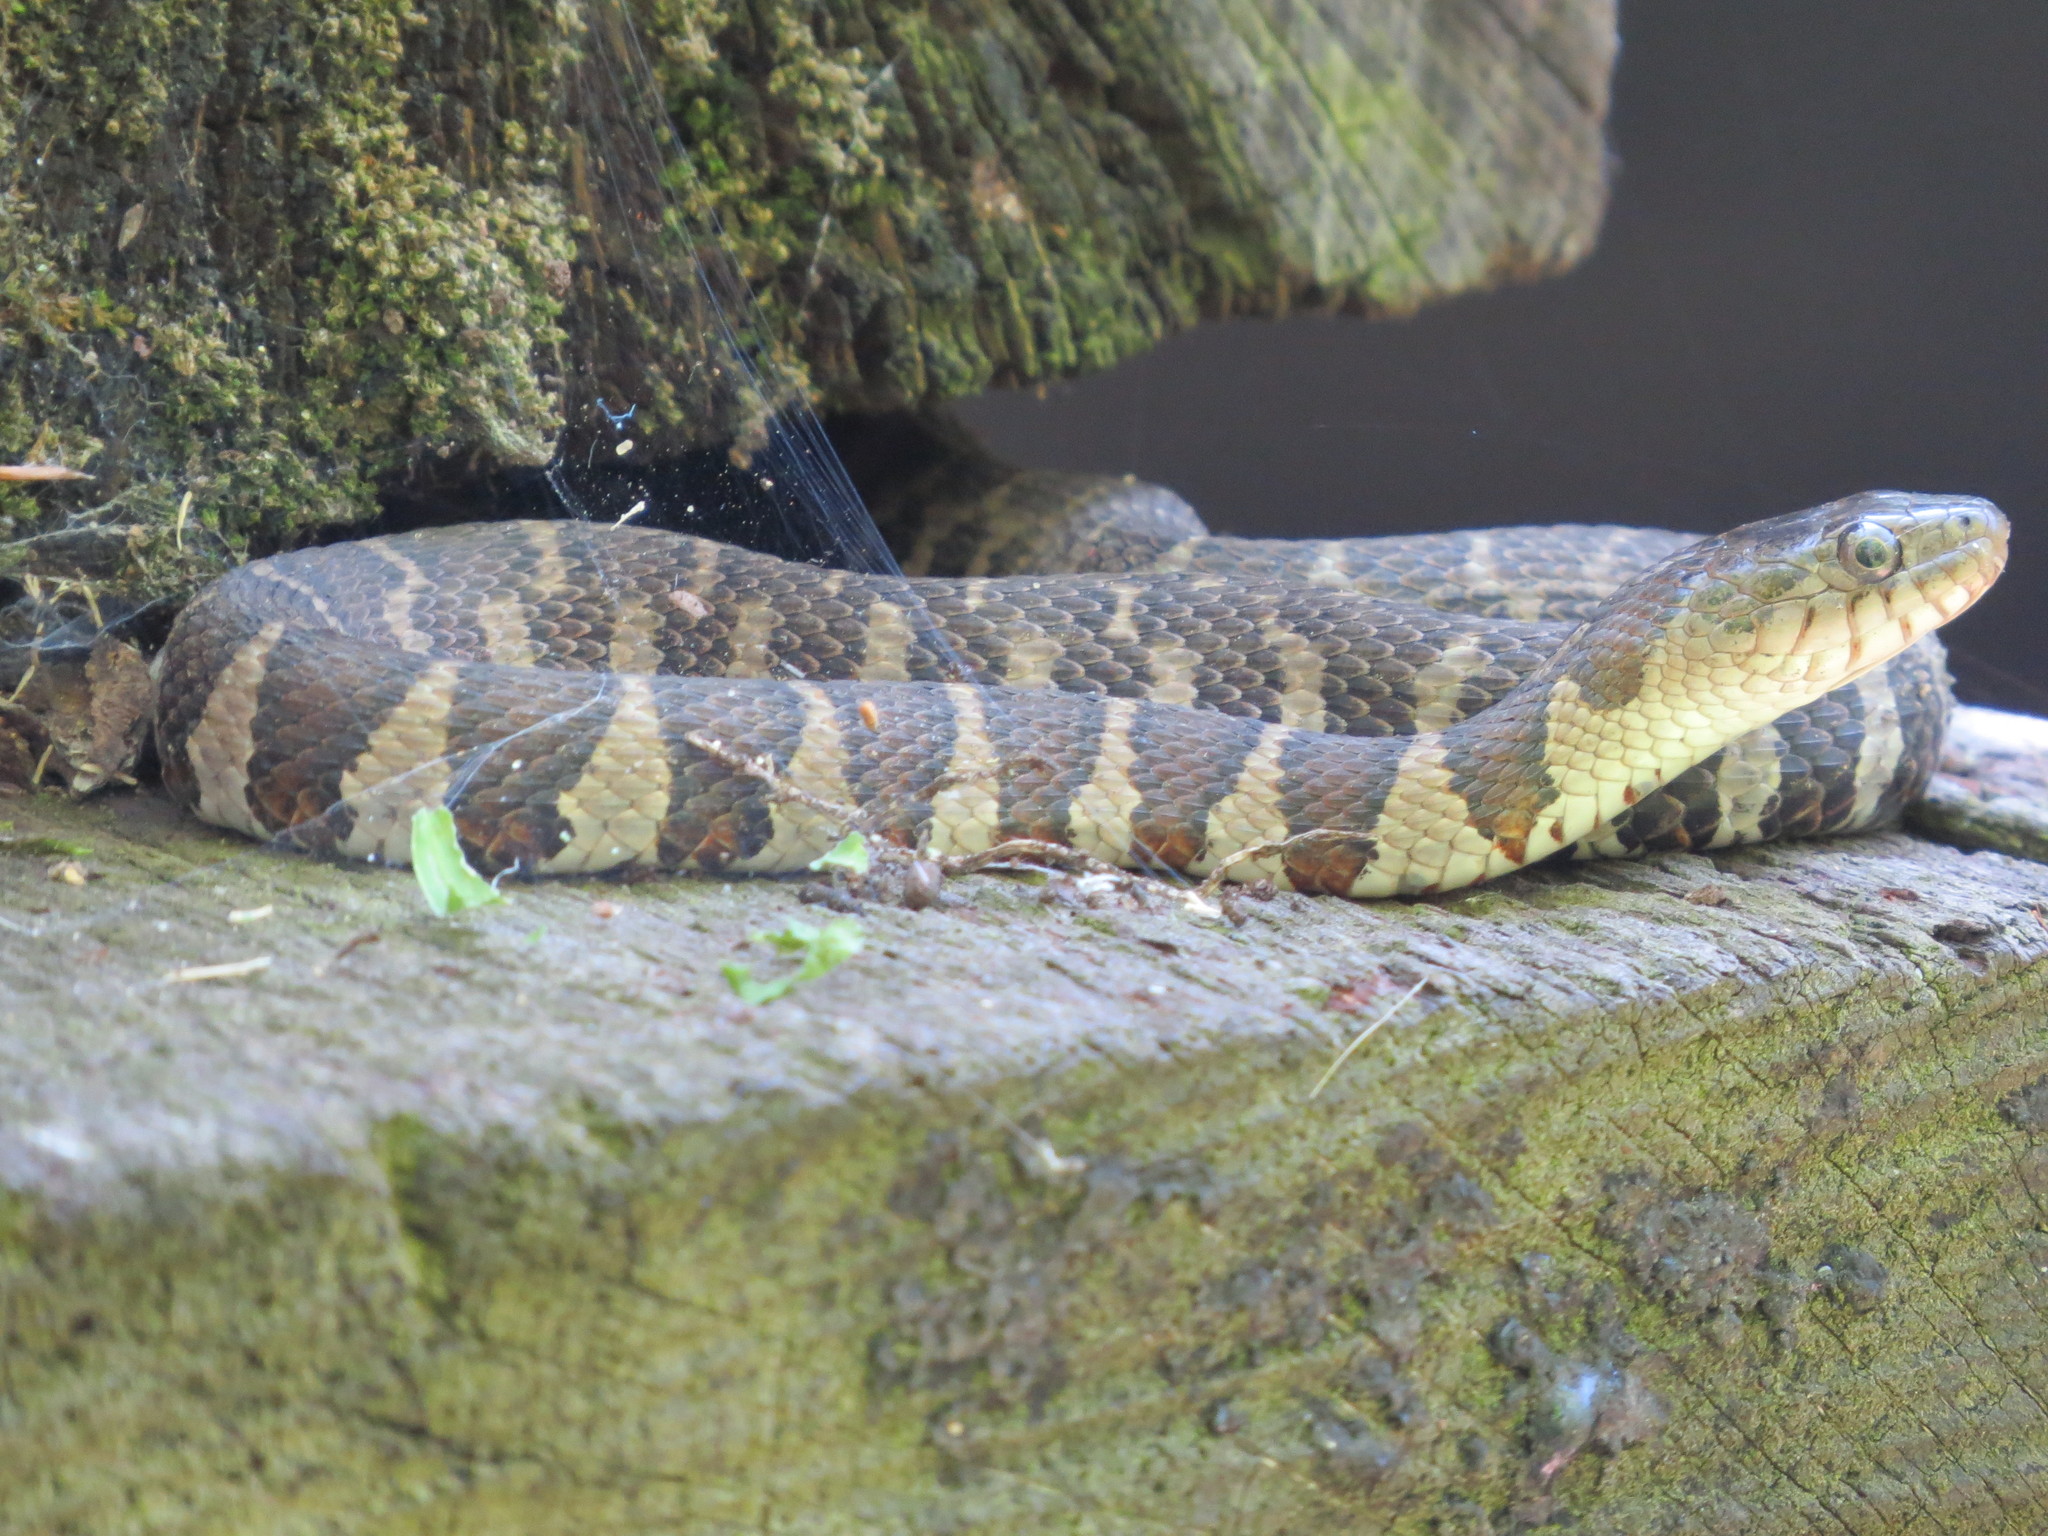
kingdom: Animalia
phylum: Chordata
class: Squamata
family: Colubridae
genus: Nerodia
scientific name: Nerodia sipedon
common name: Northern water snake
